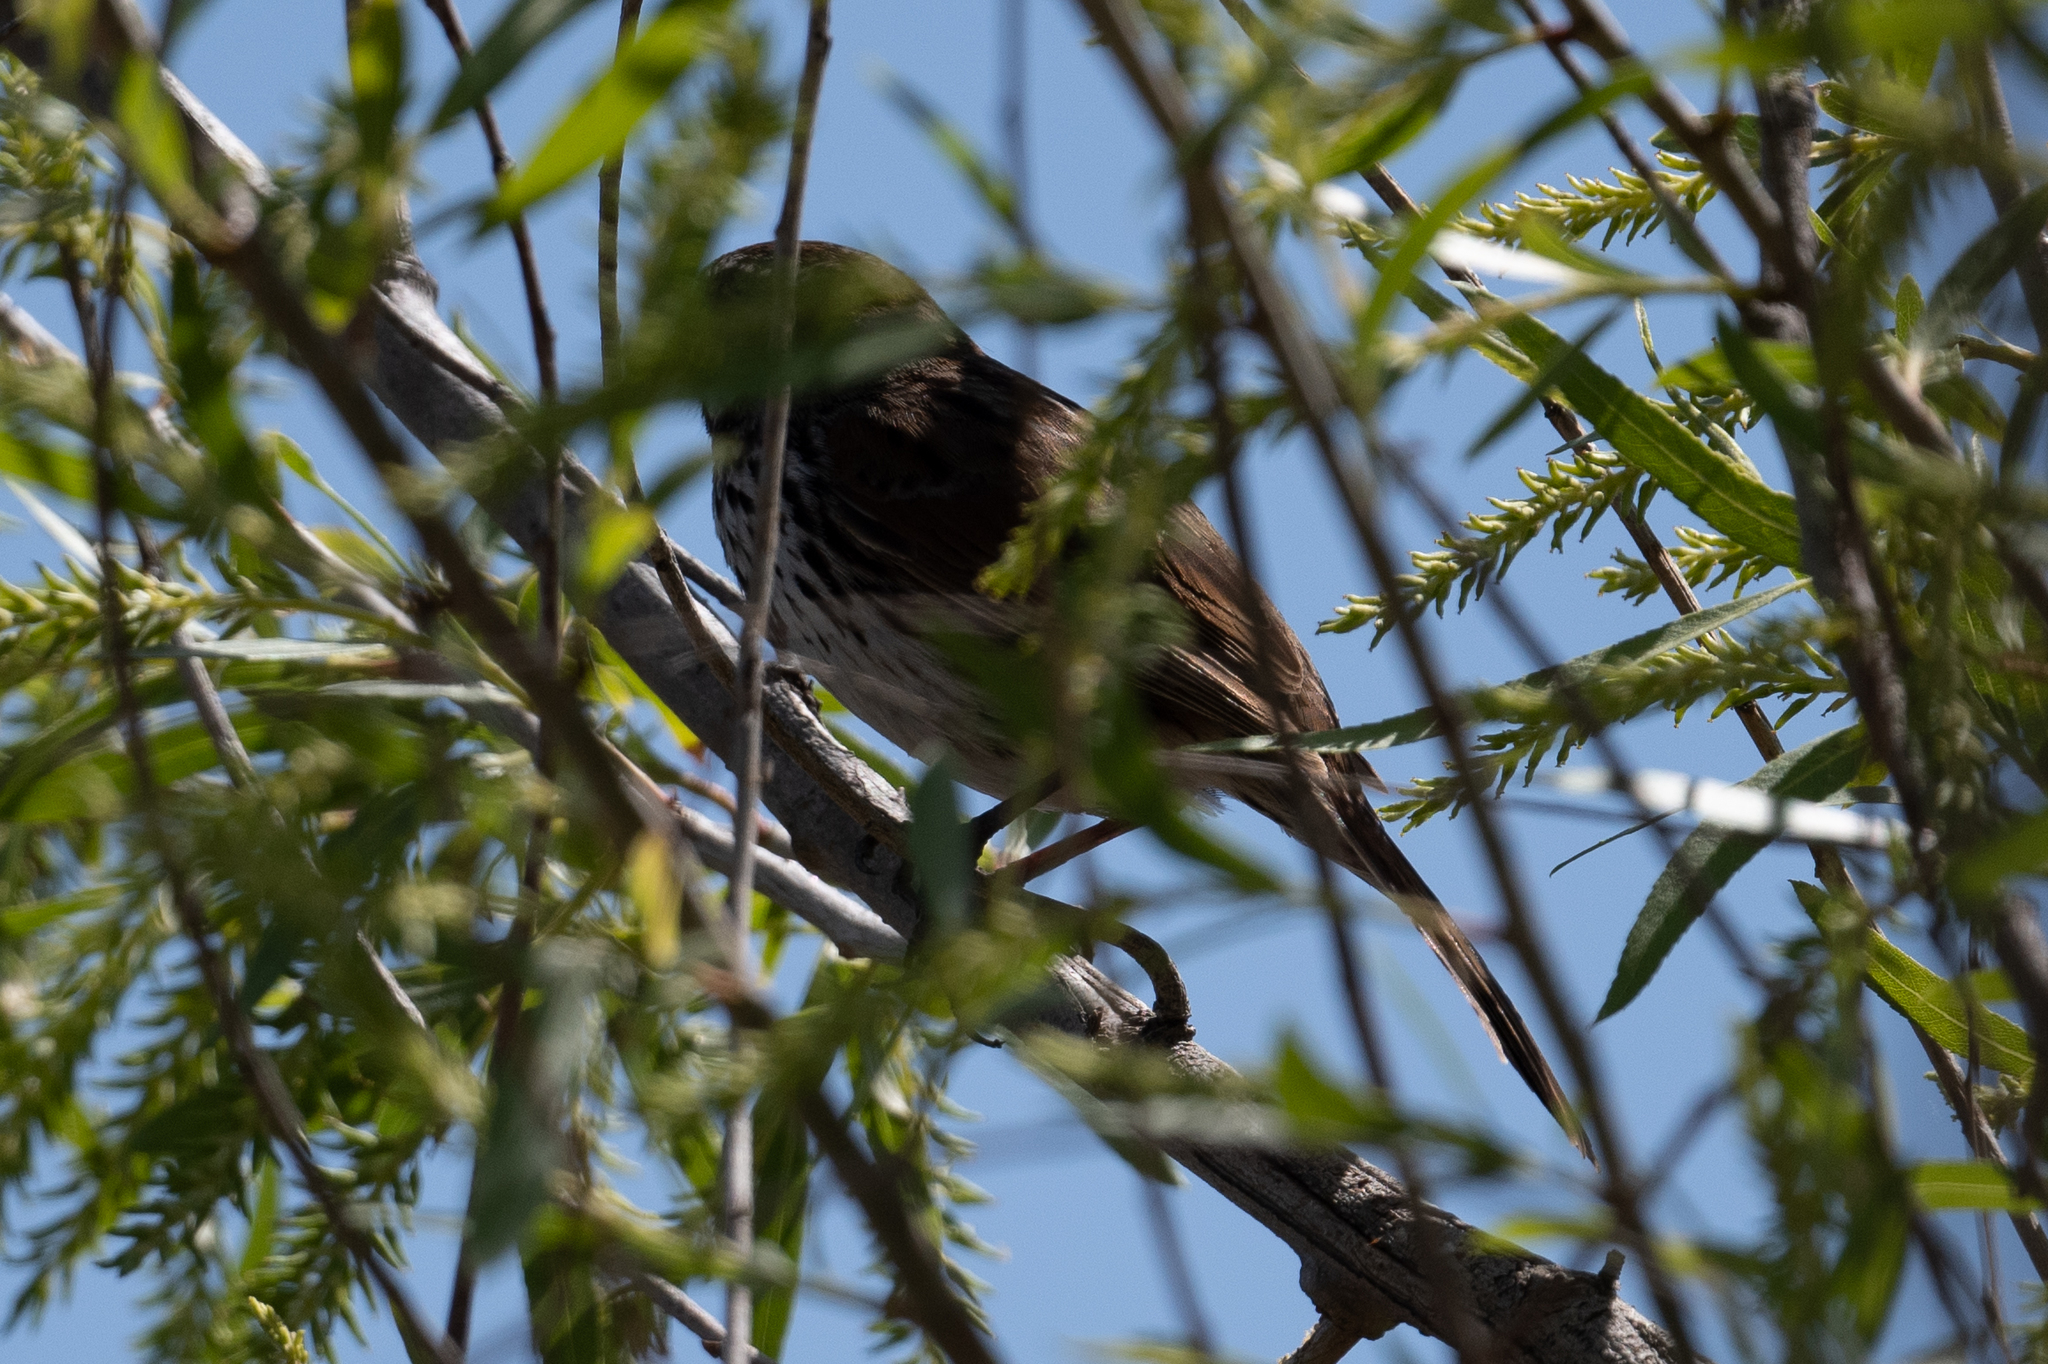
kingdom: Animalia
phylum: Chordata
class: Aves
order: Passeriformes
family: Passerellidae
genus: Melospiza
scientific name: Melospiza melodia
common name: Song sparrow
